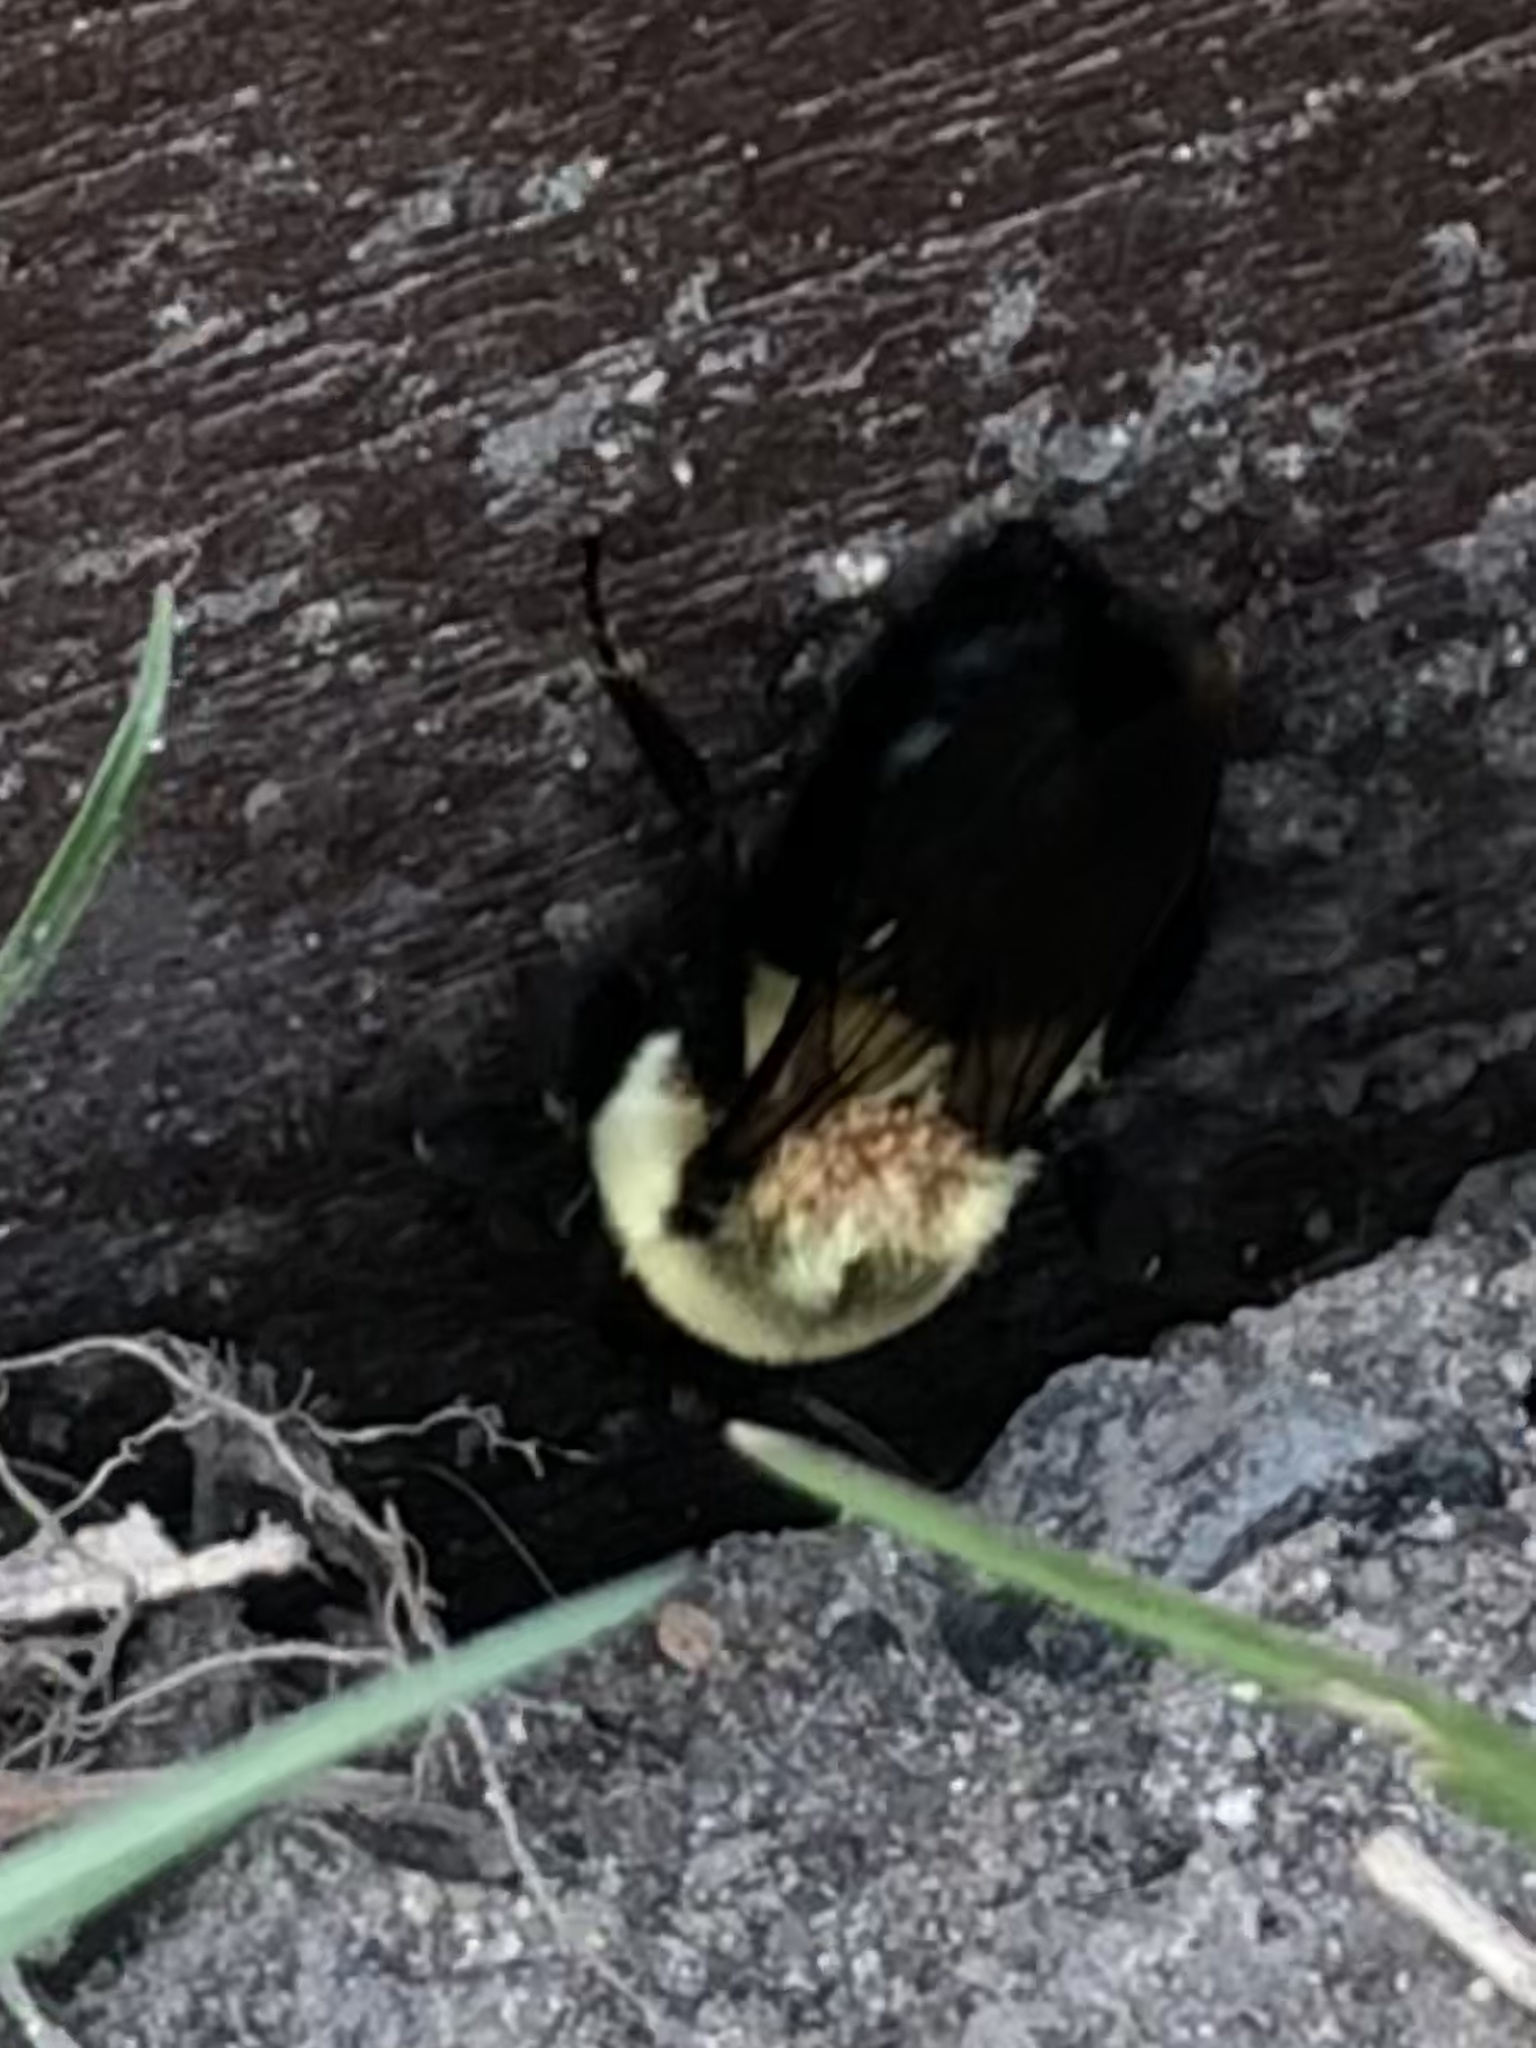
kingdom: Animalia
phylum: Arthropoda
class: Insecta
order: Hymenoptera
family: Apidae
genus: Bombus
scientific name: Bombus impatiens
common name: Common eastern bumble bee
